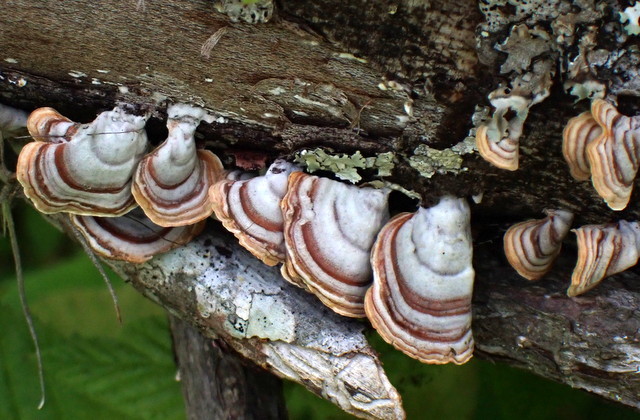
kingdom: Fungi
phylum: Basidiomycota
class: Agaricomycetes
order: Russulales
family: Stereaceae
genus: Stereum
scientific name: Stereum lobatum
